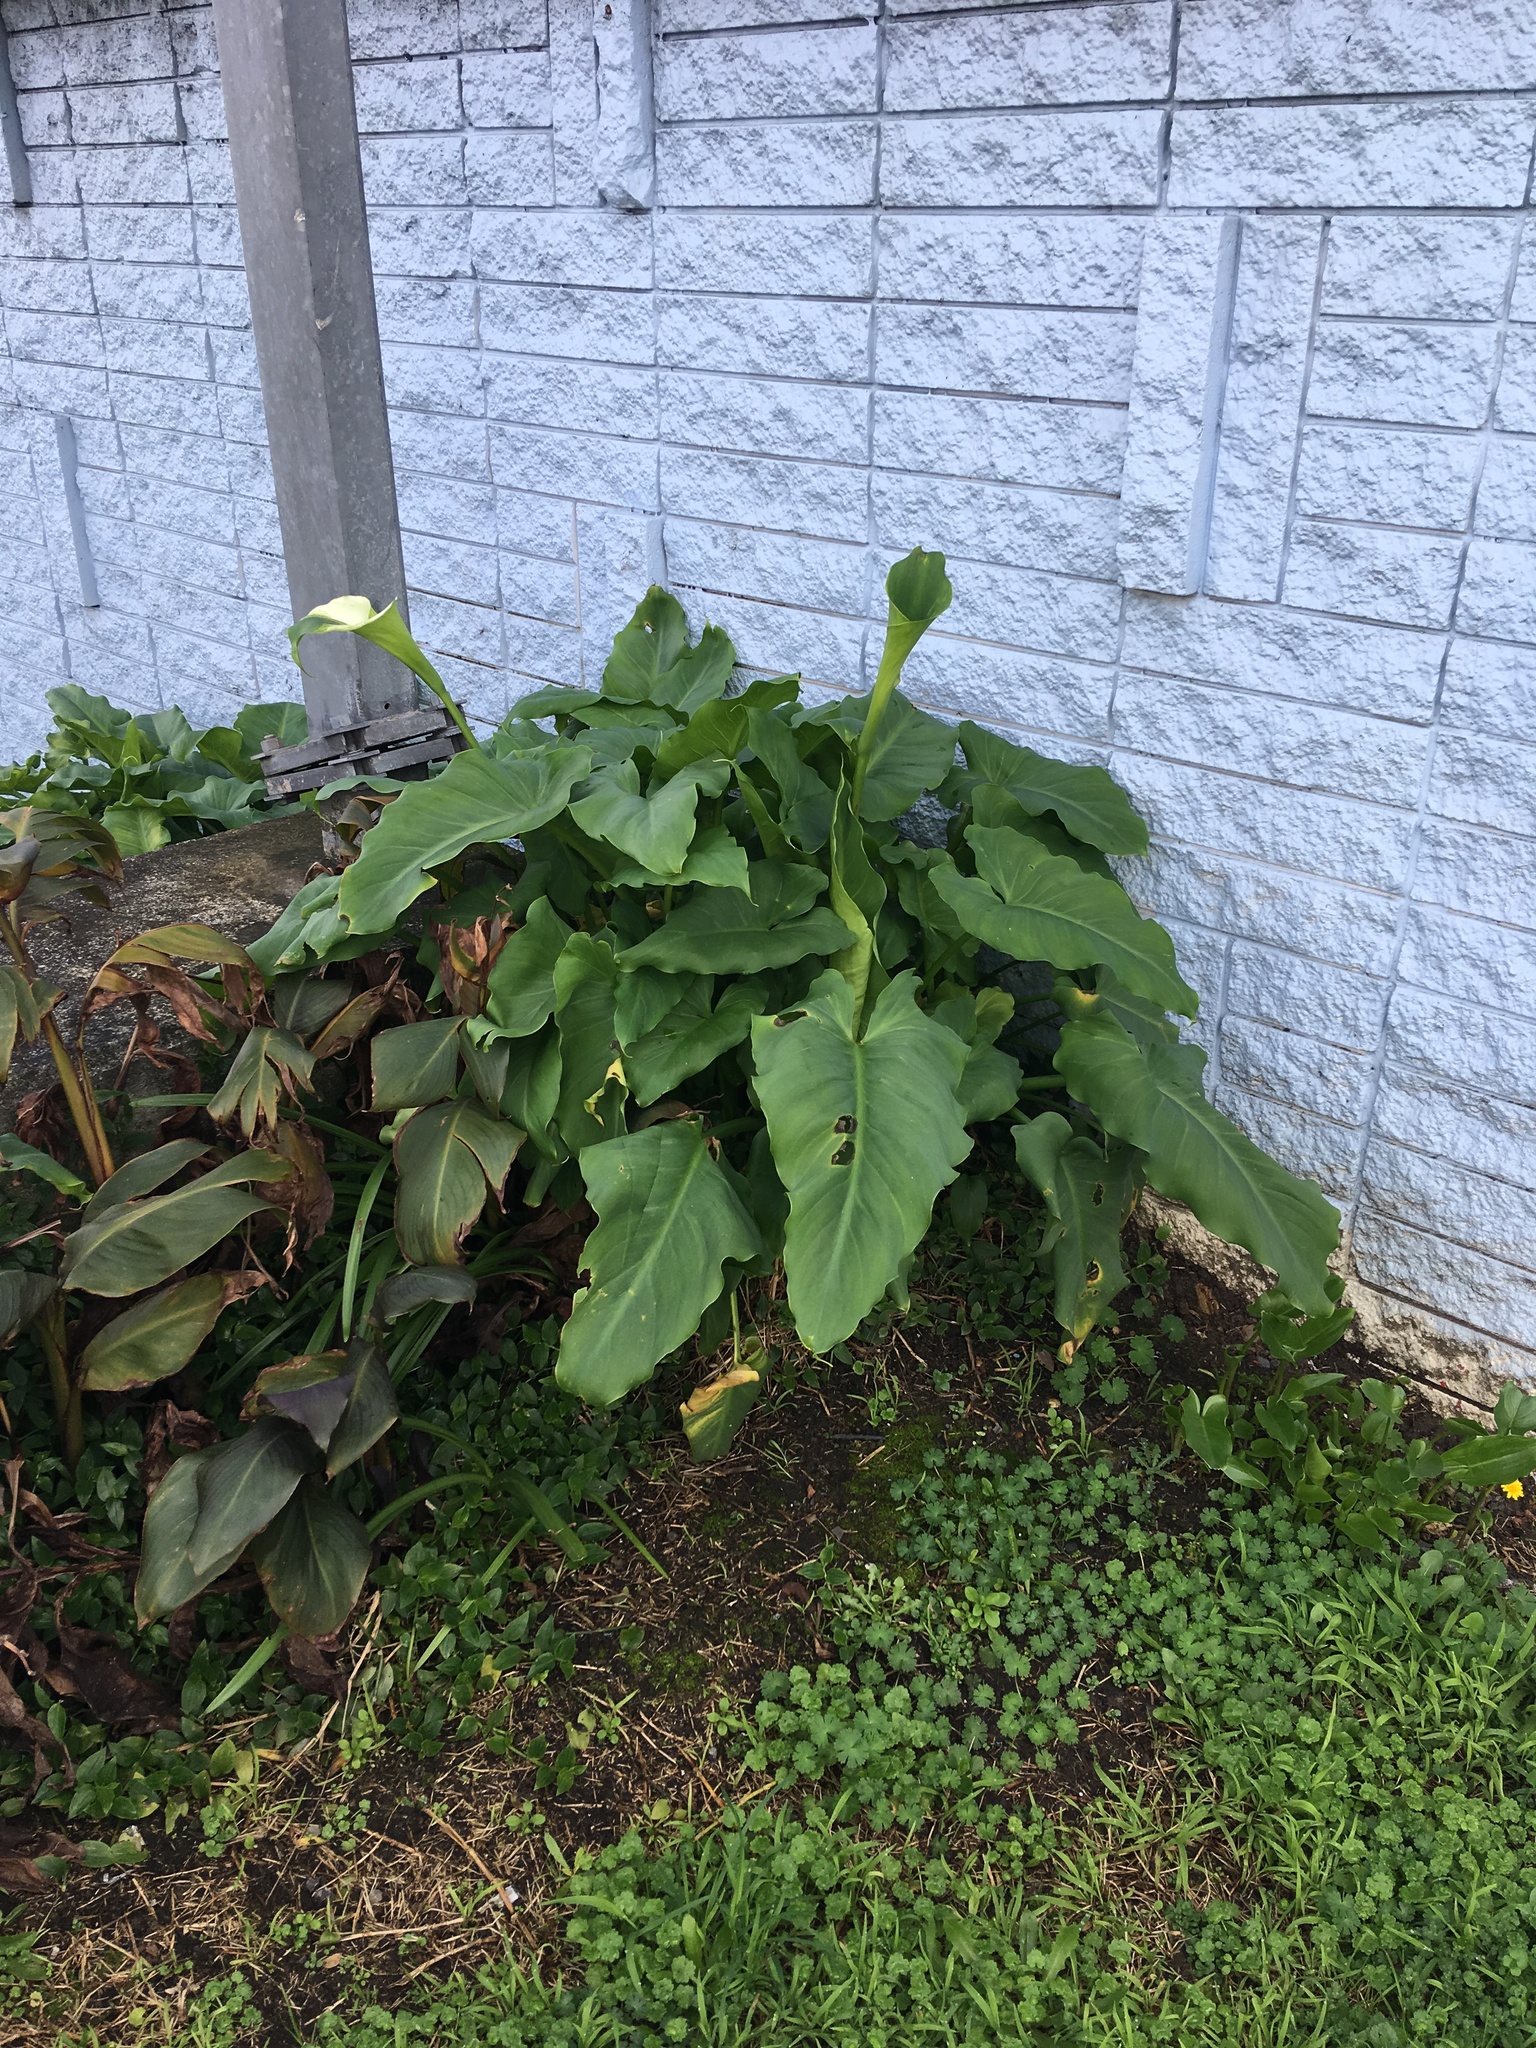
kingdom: Plantae
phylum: Tracheophyta
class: Liliopsida
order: Alismatales
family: Araceae
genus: Zantedeschia
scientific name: Zantedeschia aethiopica
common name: Altar-lily
